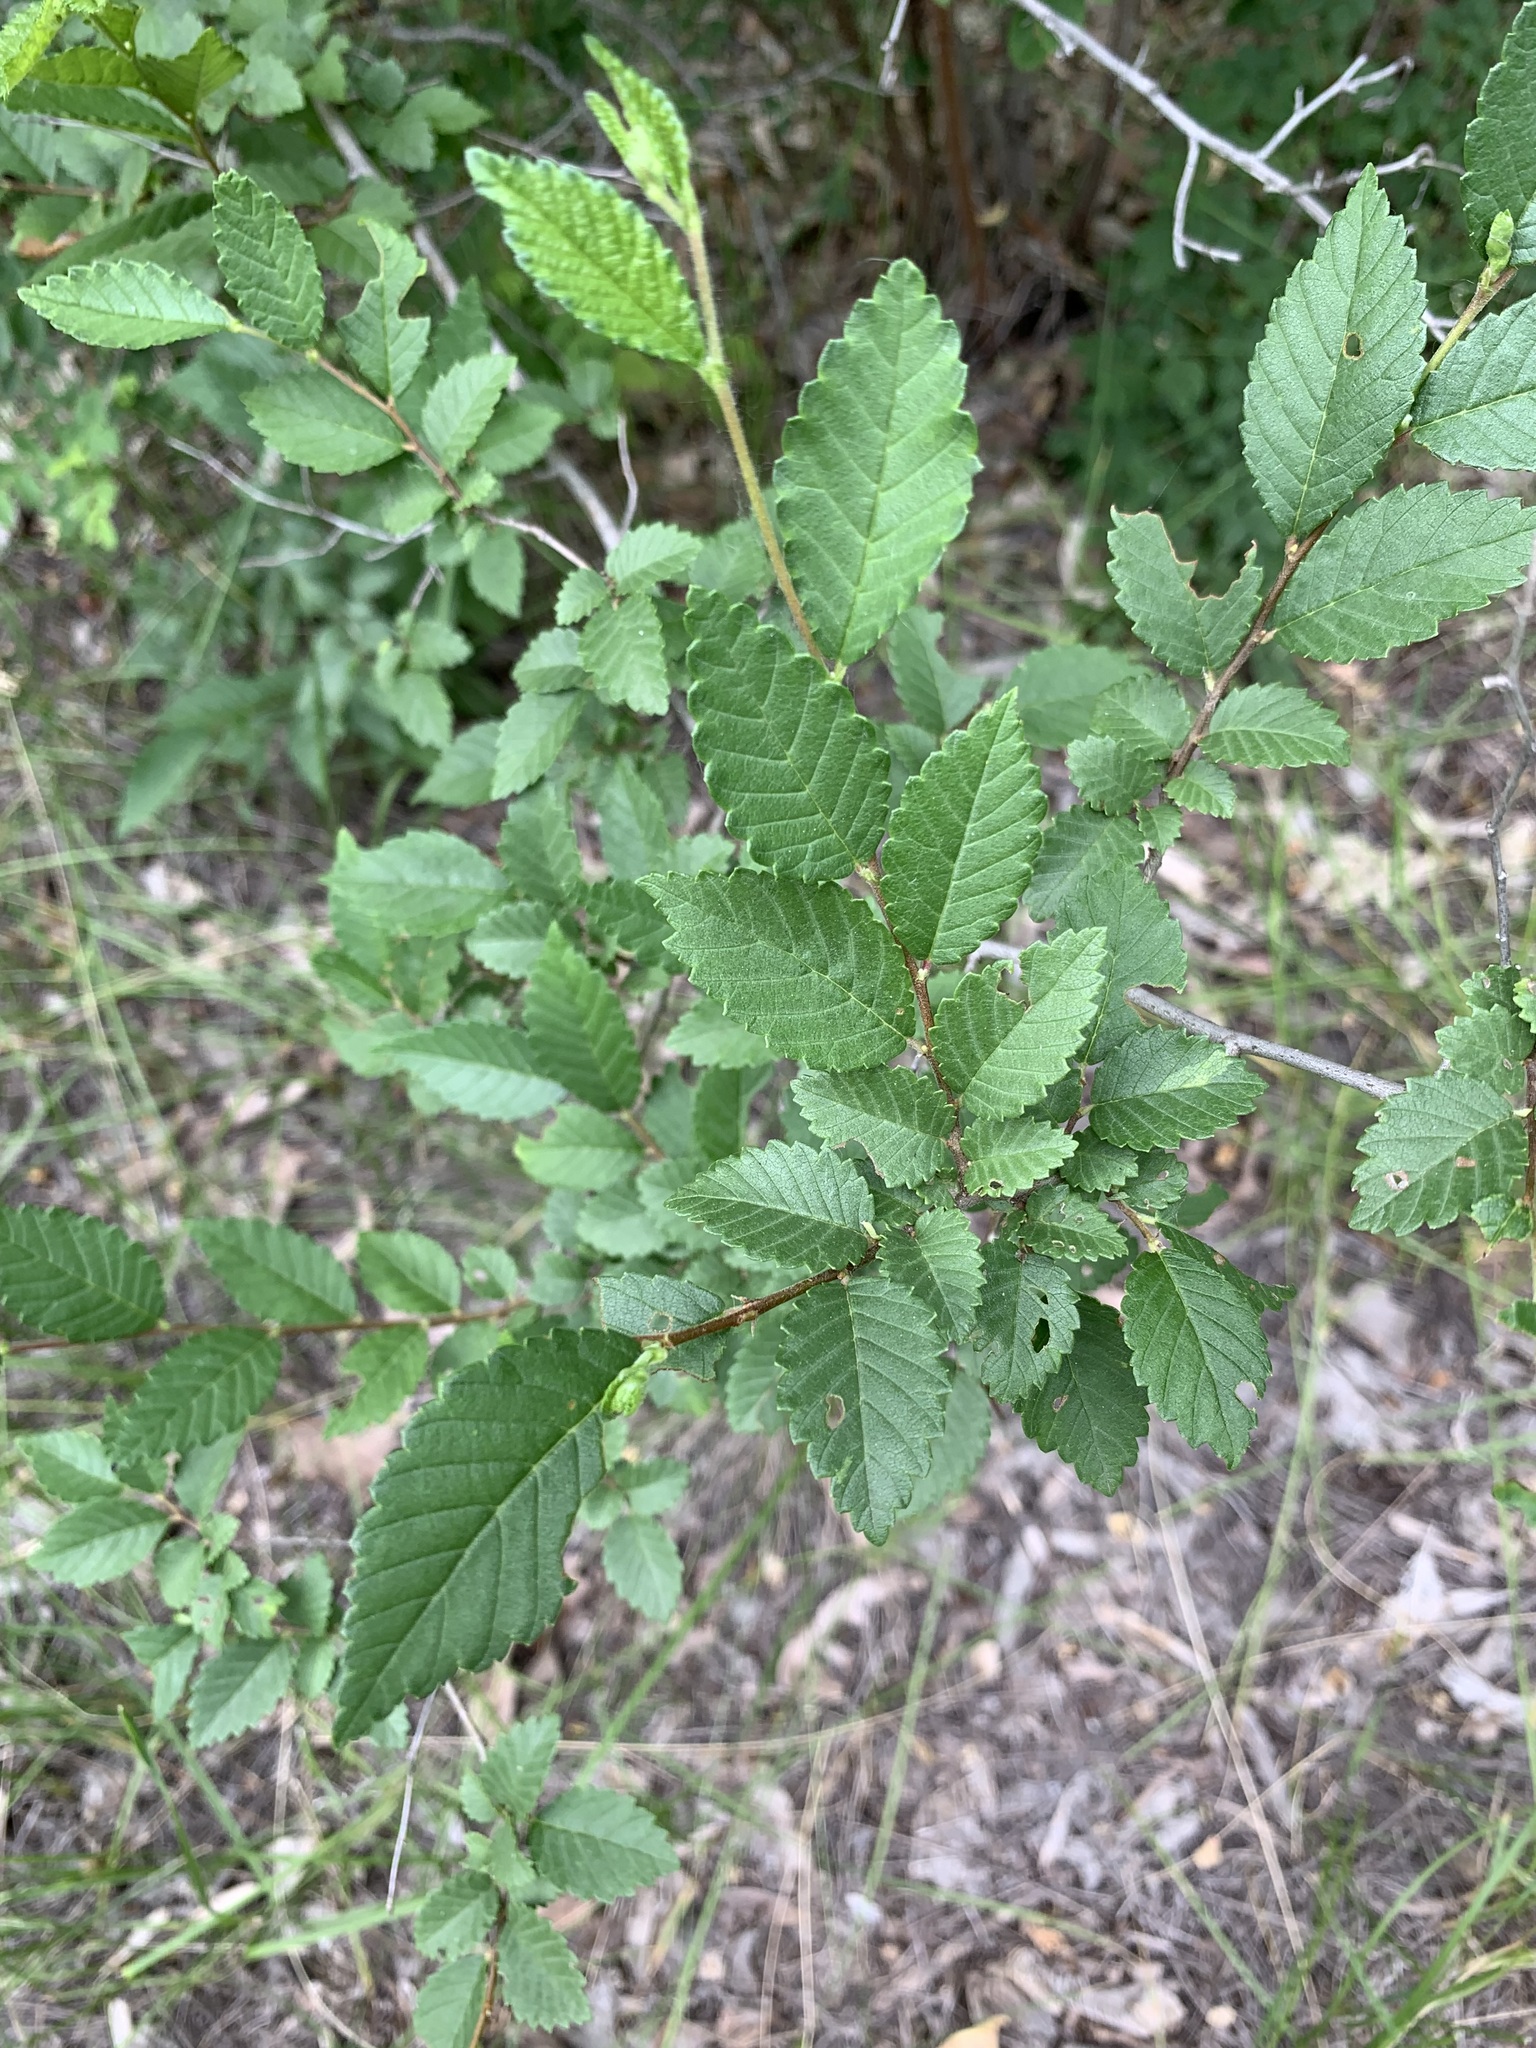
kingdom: Plantae
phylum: Tracheophyta
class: Magnoliopsida
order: Rosales
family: Ulmaceae
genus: Ulmus
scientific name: Ulmus pumila
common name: Siberian elm
